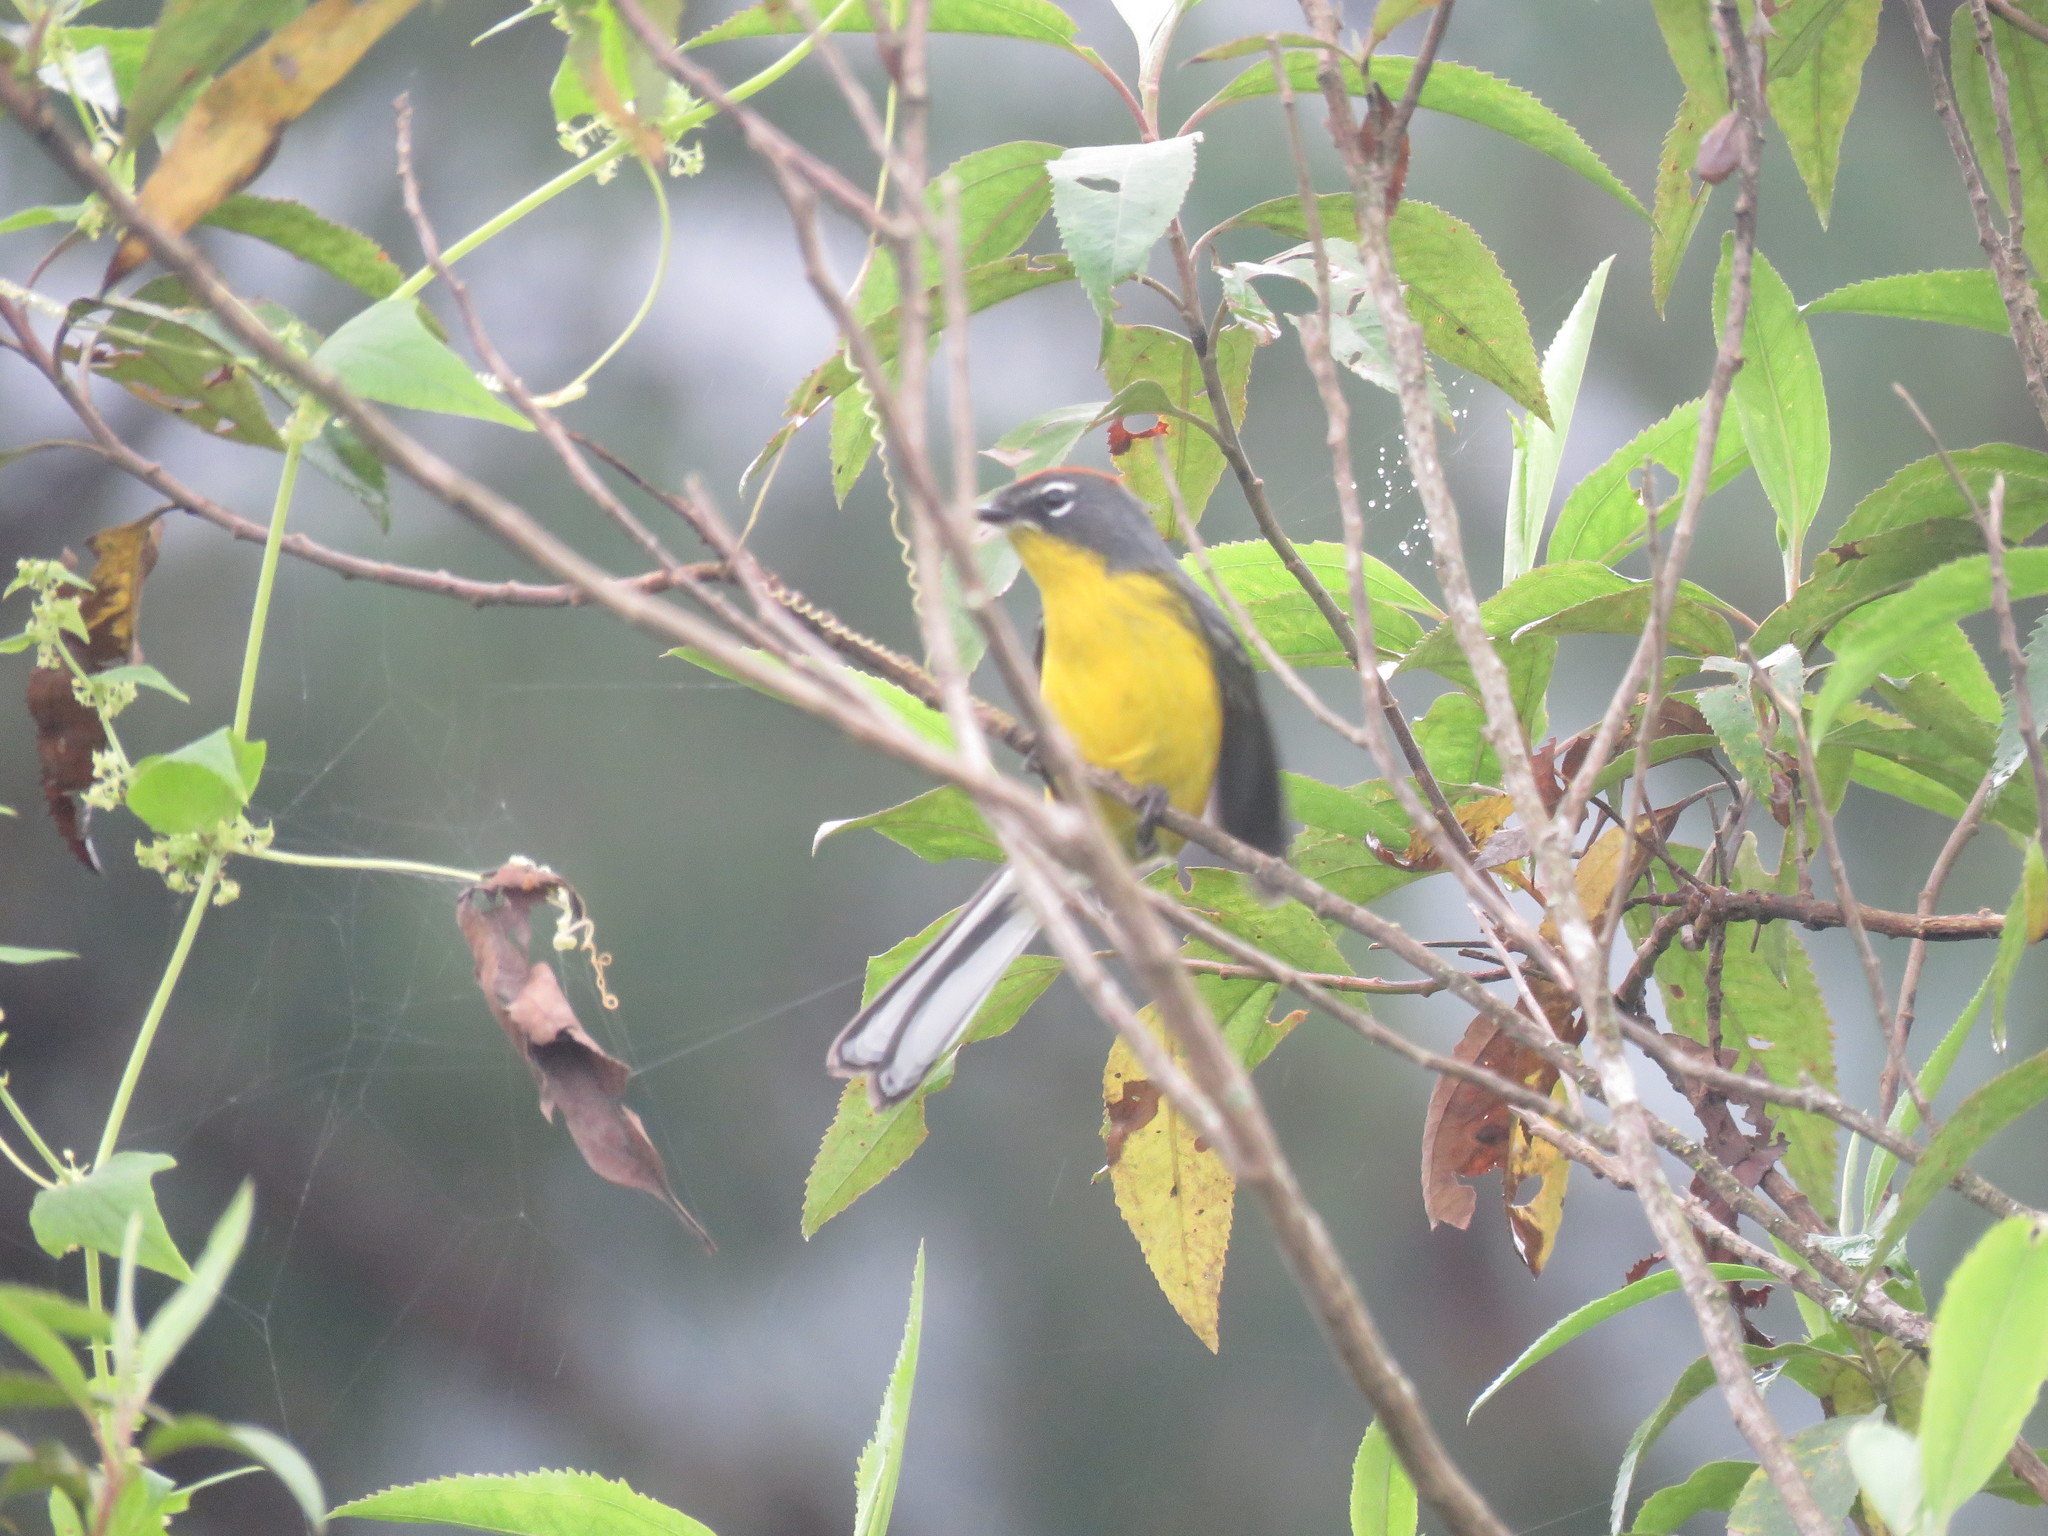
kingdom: Animalia
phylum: Chordata
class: Aves
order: Passeriformes
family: Parulidae
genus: Myioborus
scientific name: Myioborus brunniceps
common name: Brown-capped whitestart
